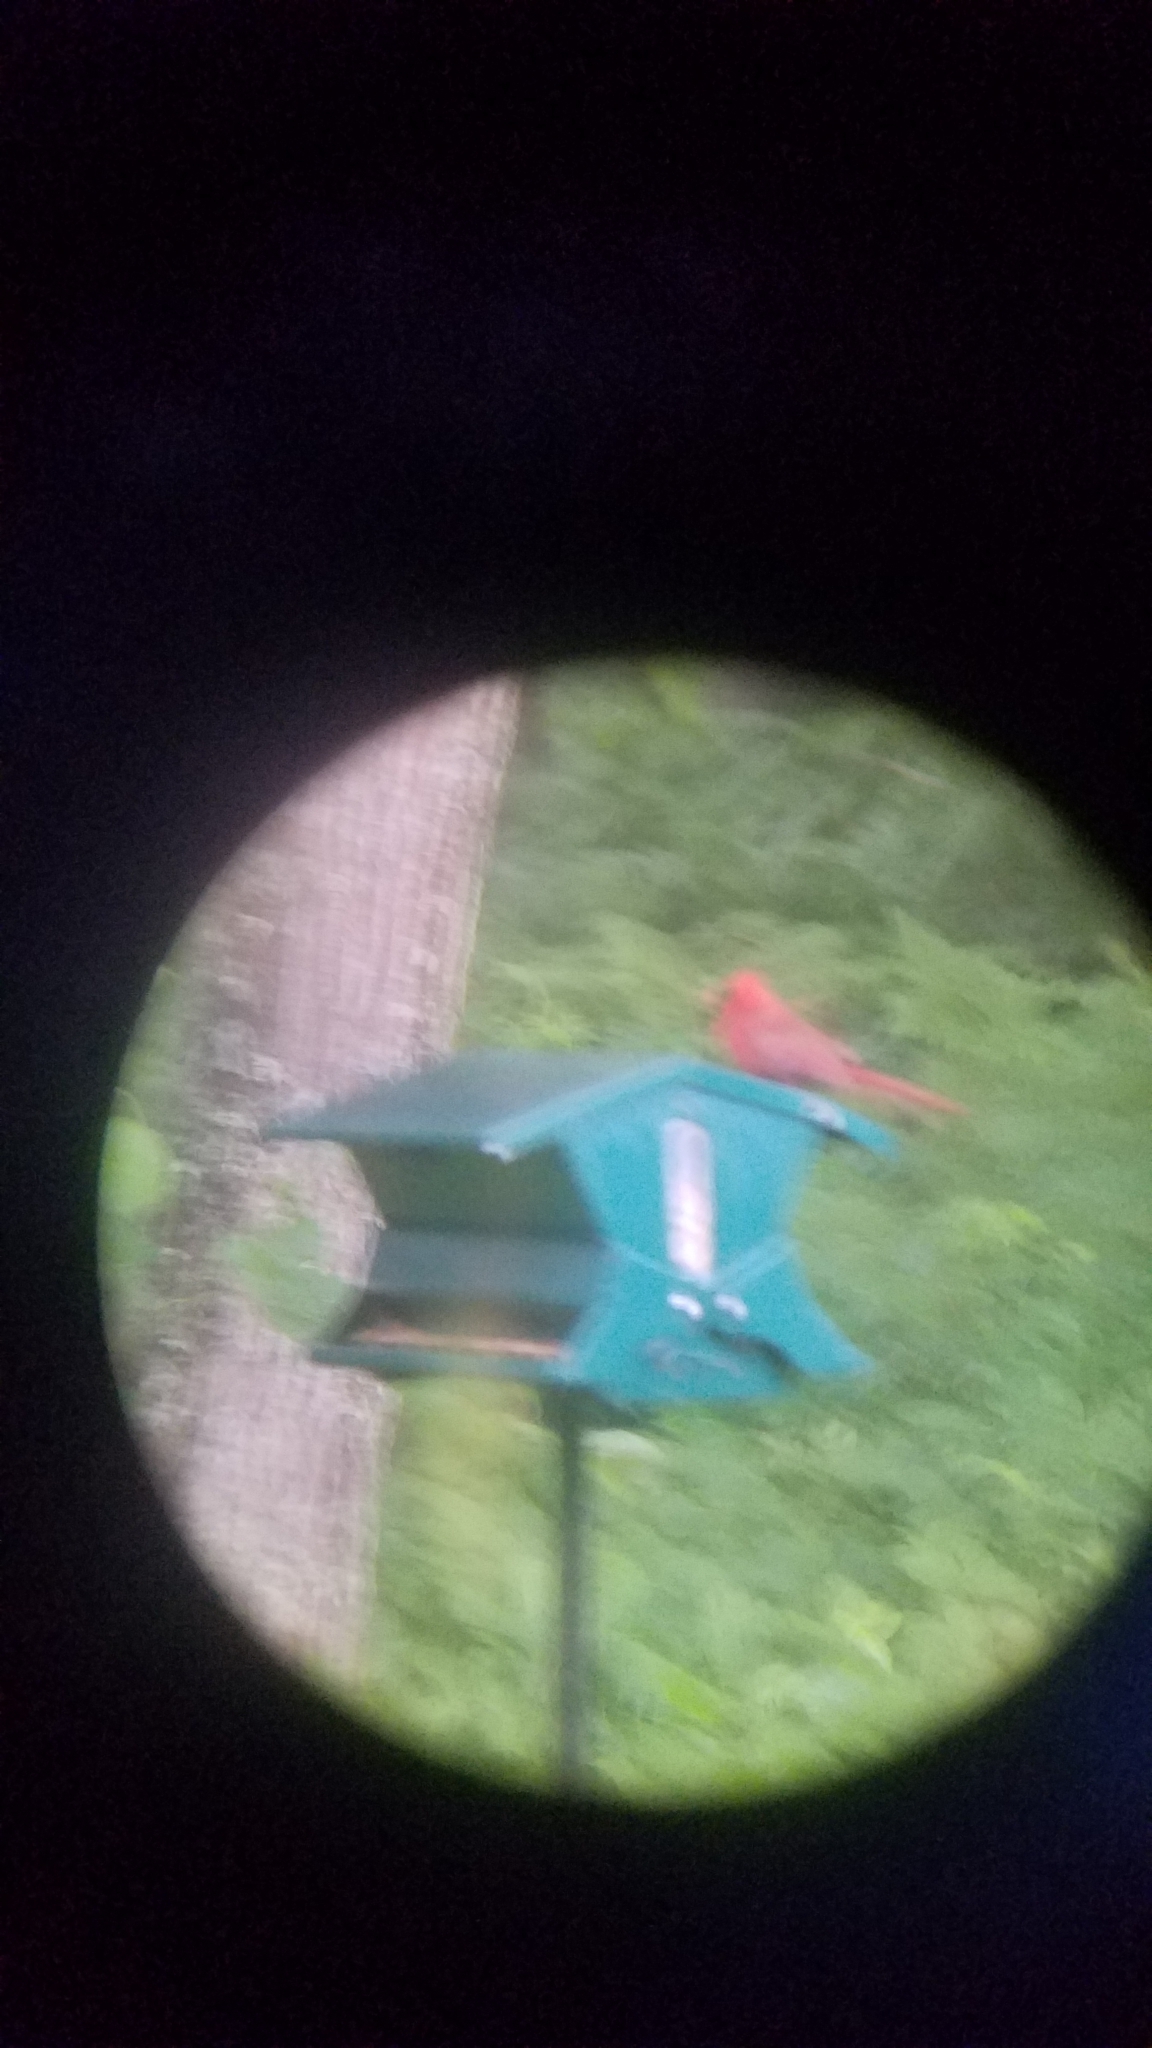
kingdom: Animalia
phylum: Chordata
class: Aves
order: Passeriformes
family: Cardinalidae
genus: Cardinalis
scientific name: Cardinalis cardinalis
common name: Northern cardinal
